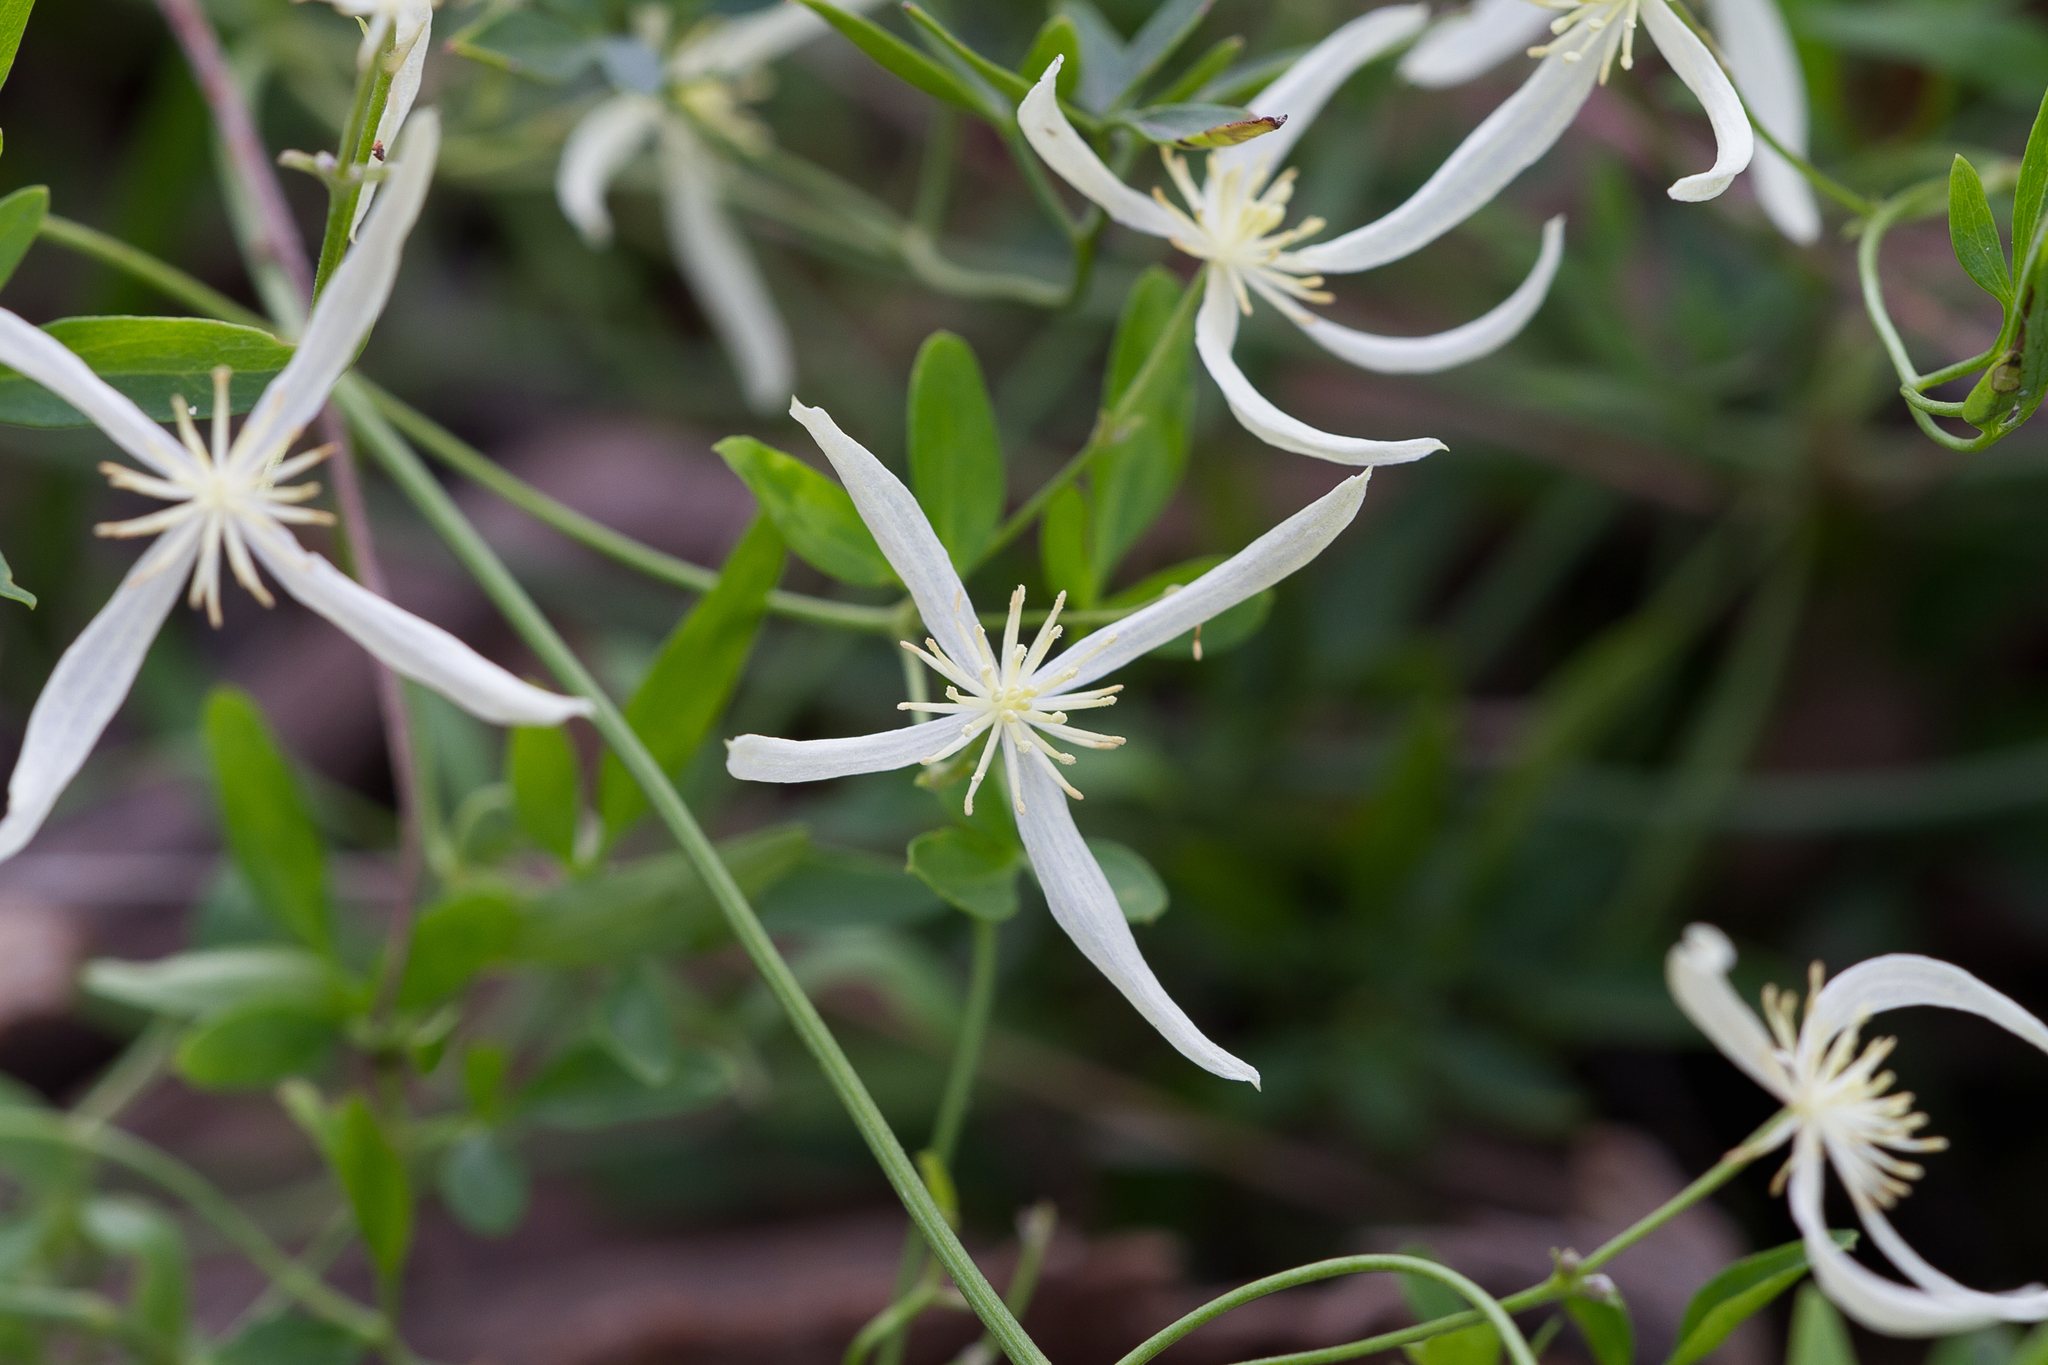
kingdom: Plantae
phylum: Tracheophyta
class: Magnoliopsida
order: Ranunculales
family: Ranunculaceae
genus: Clematis
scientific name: Clematis microphylla
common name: Headachevine
